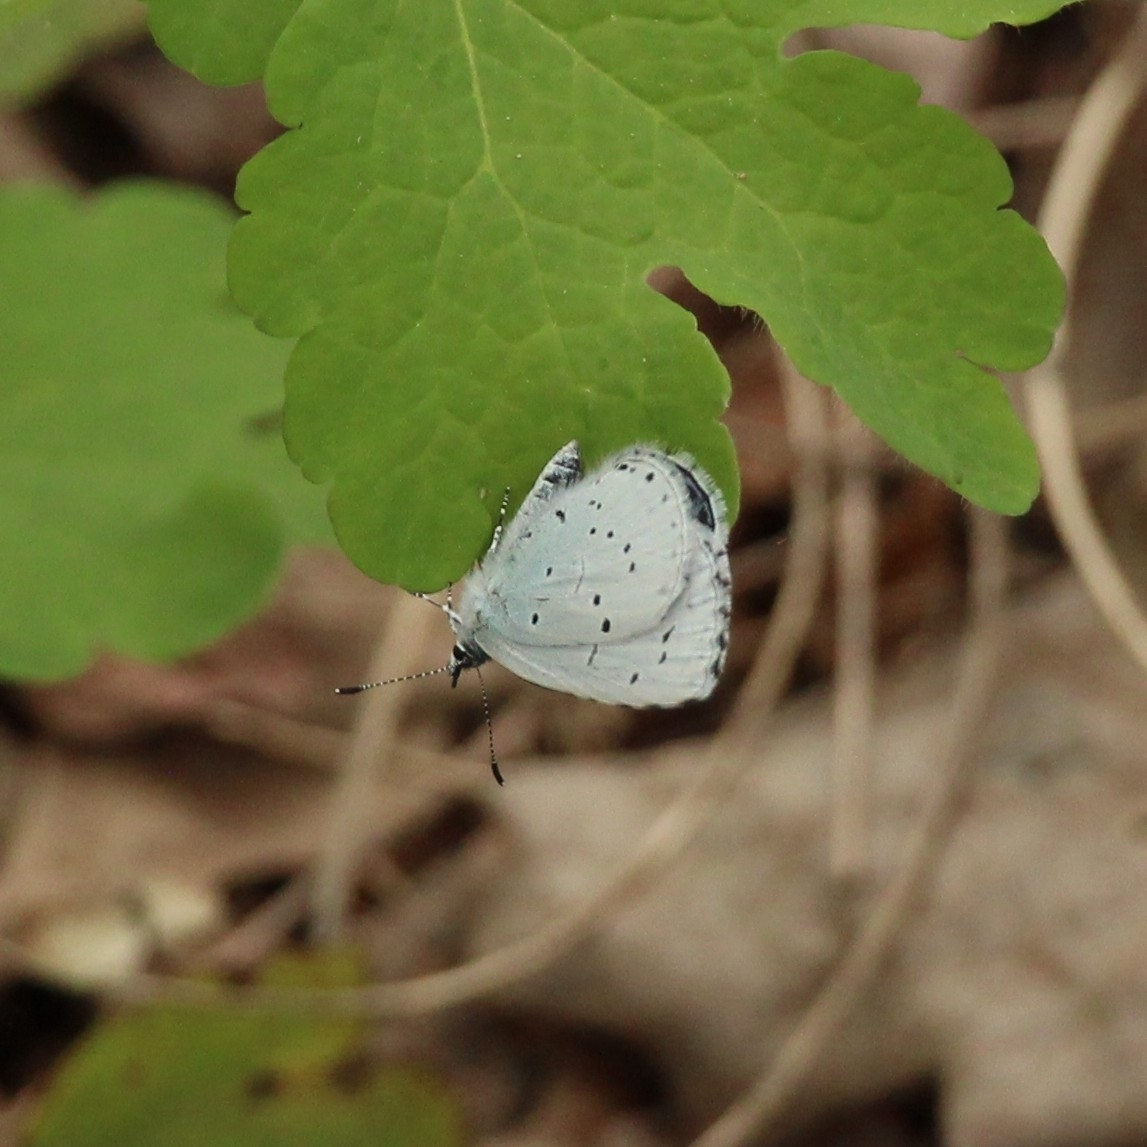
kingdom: Animalia
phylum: Arthropoda
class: Insecta
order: Lepidoptera
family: Lycaenidae
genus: Celastrina
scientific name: Celastrina argiolus
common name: Holly blue
